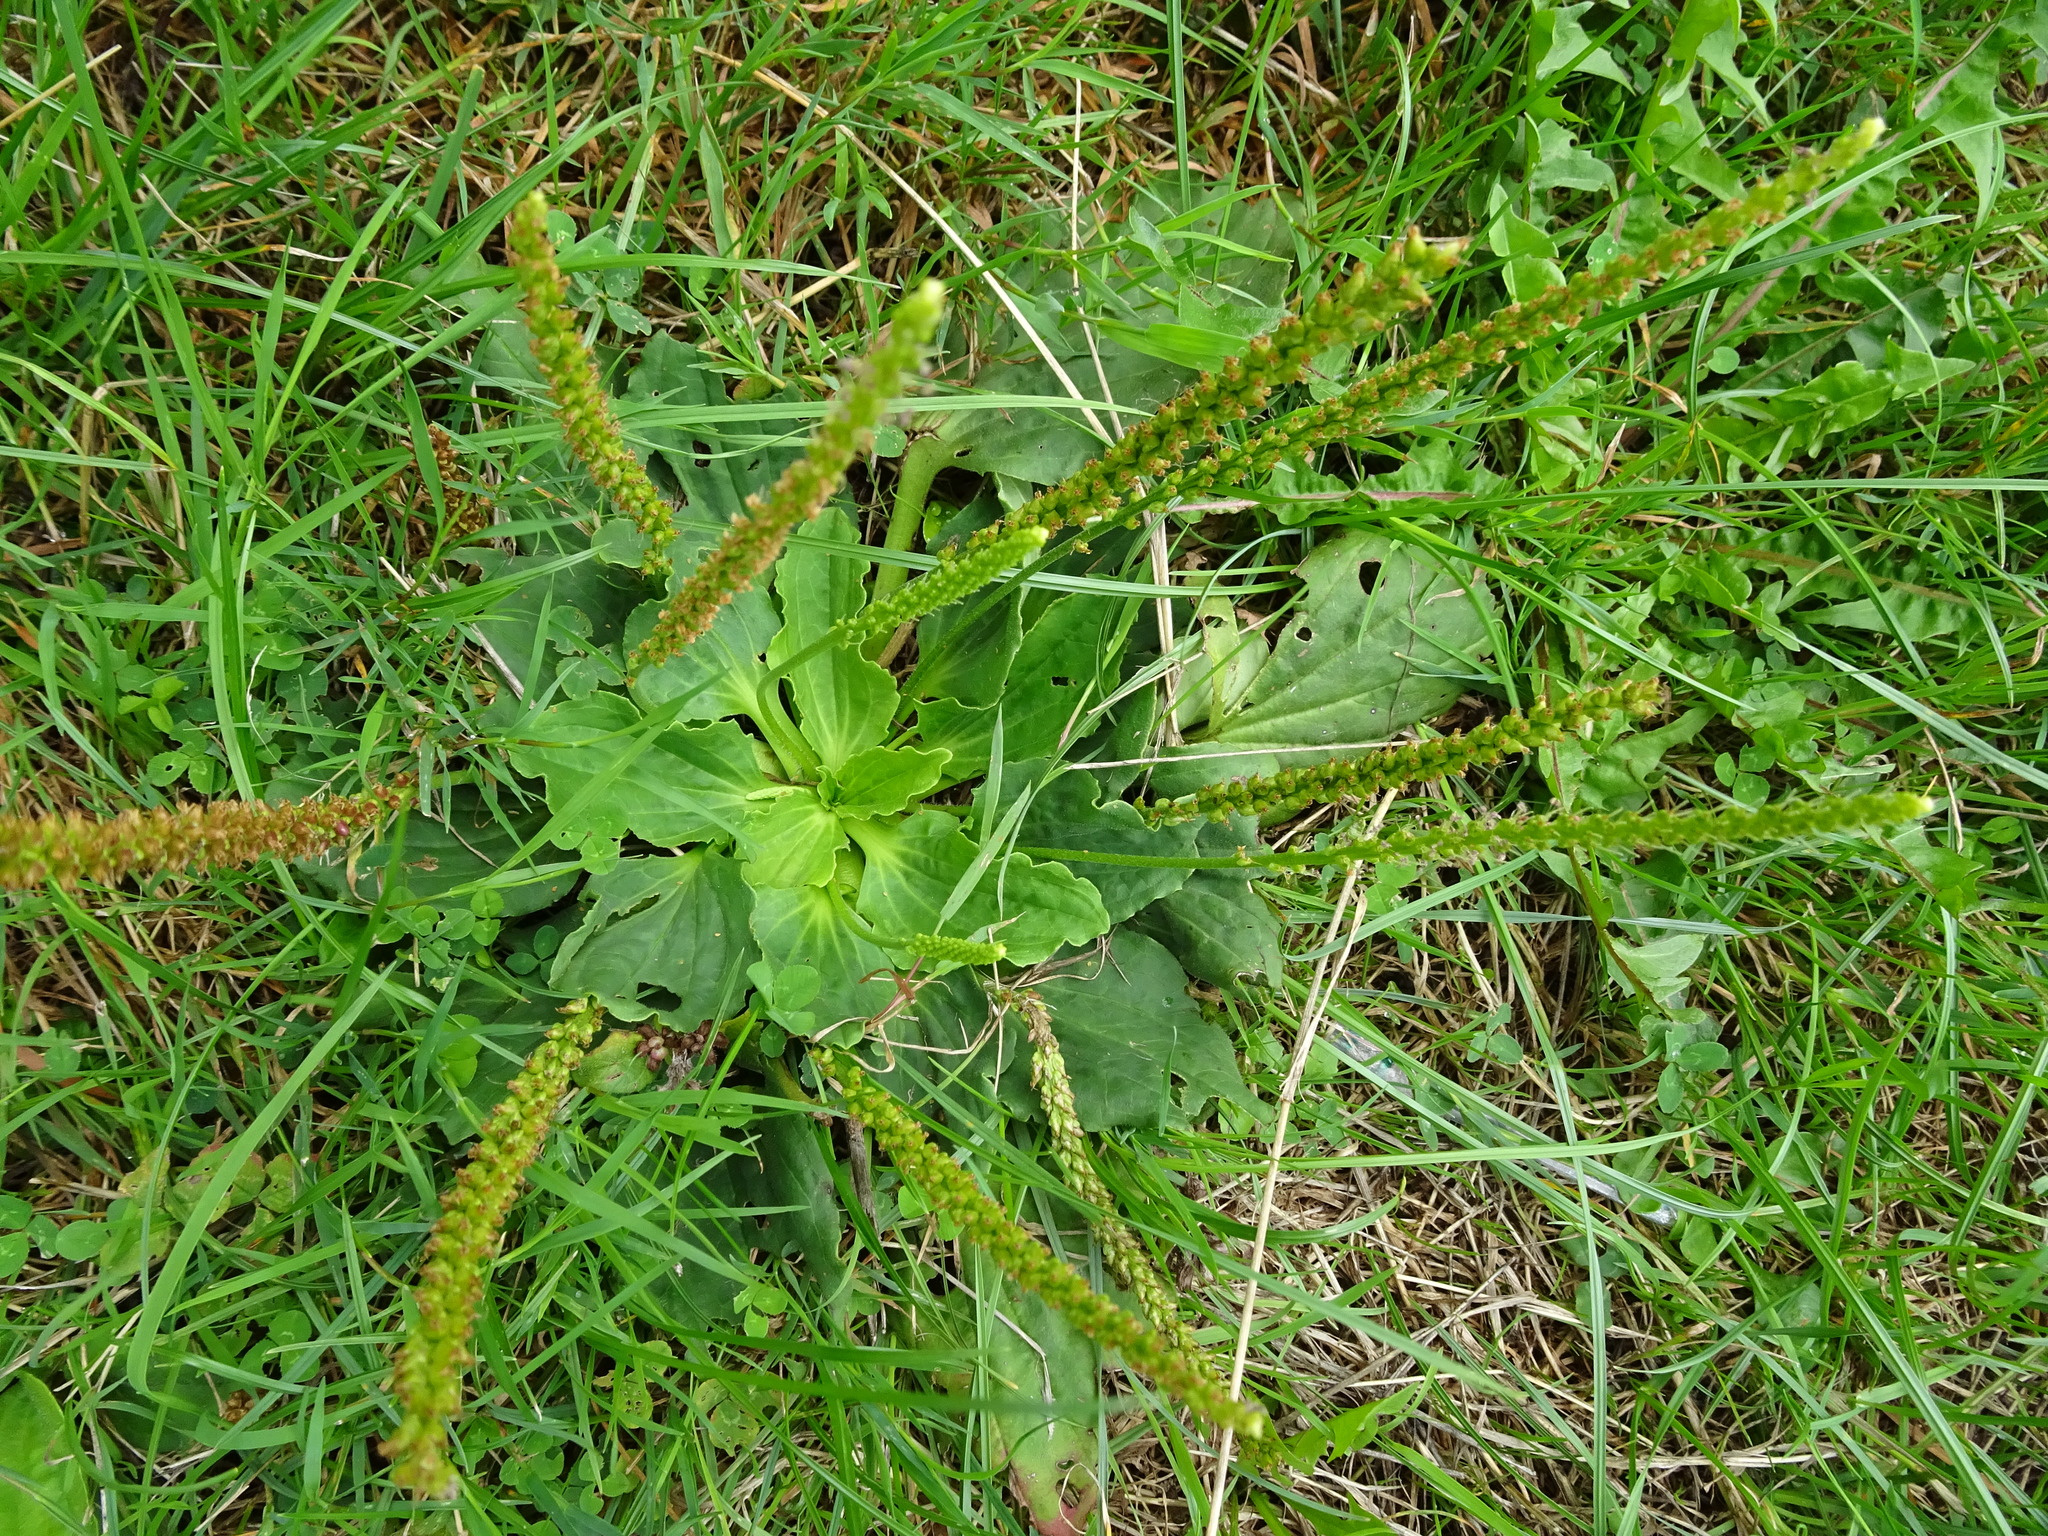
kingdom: Plantae
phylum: Tracheophyta
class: Magnoliopsida
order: Lamiales
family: Plantaginaceae
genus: Plantago
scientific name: Plantago major
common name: Common plantain
